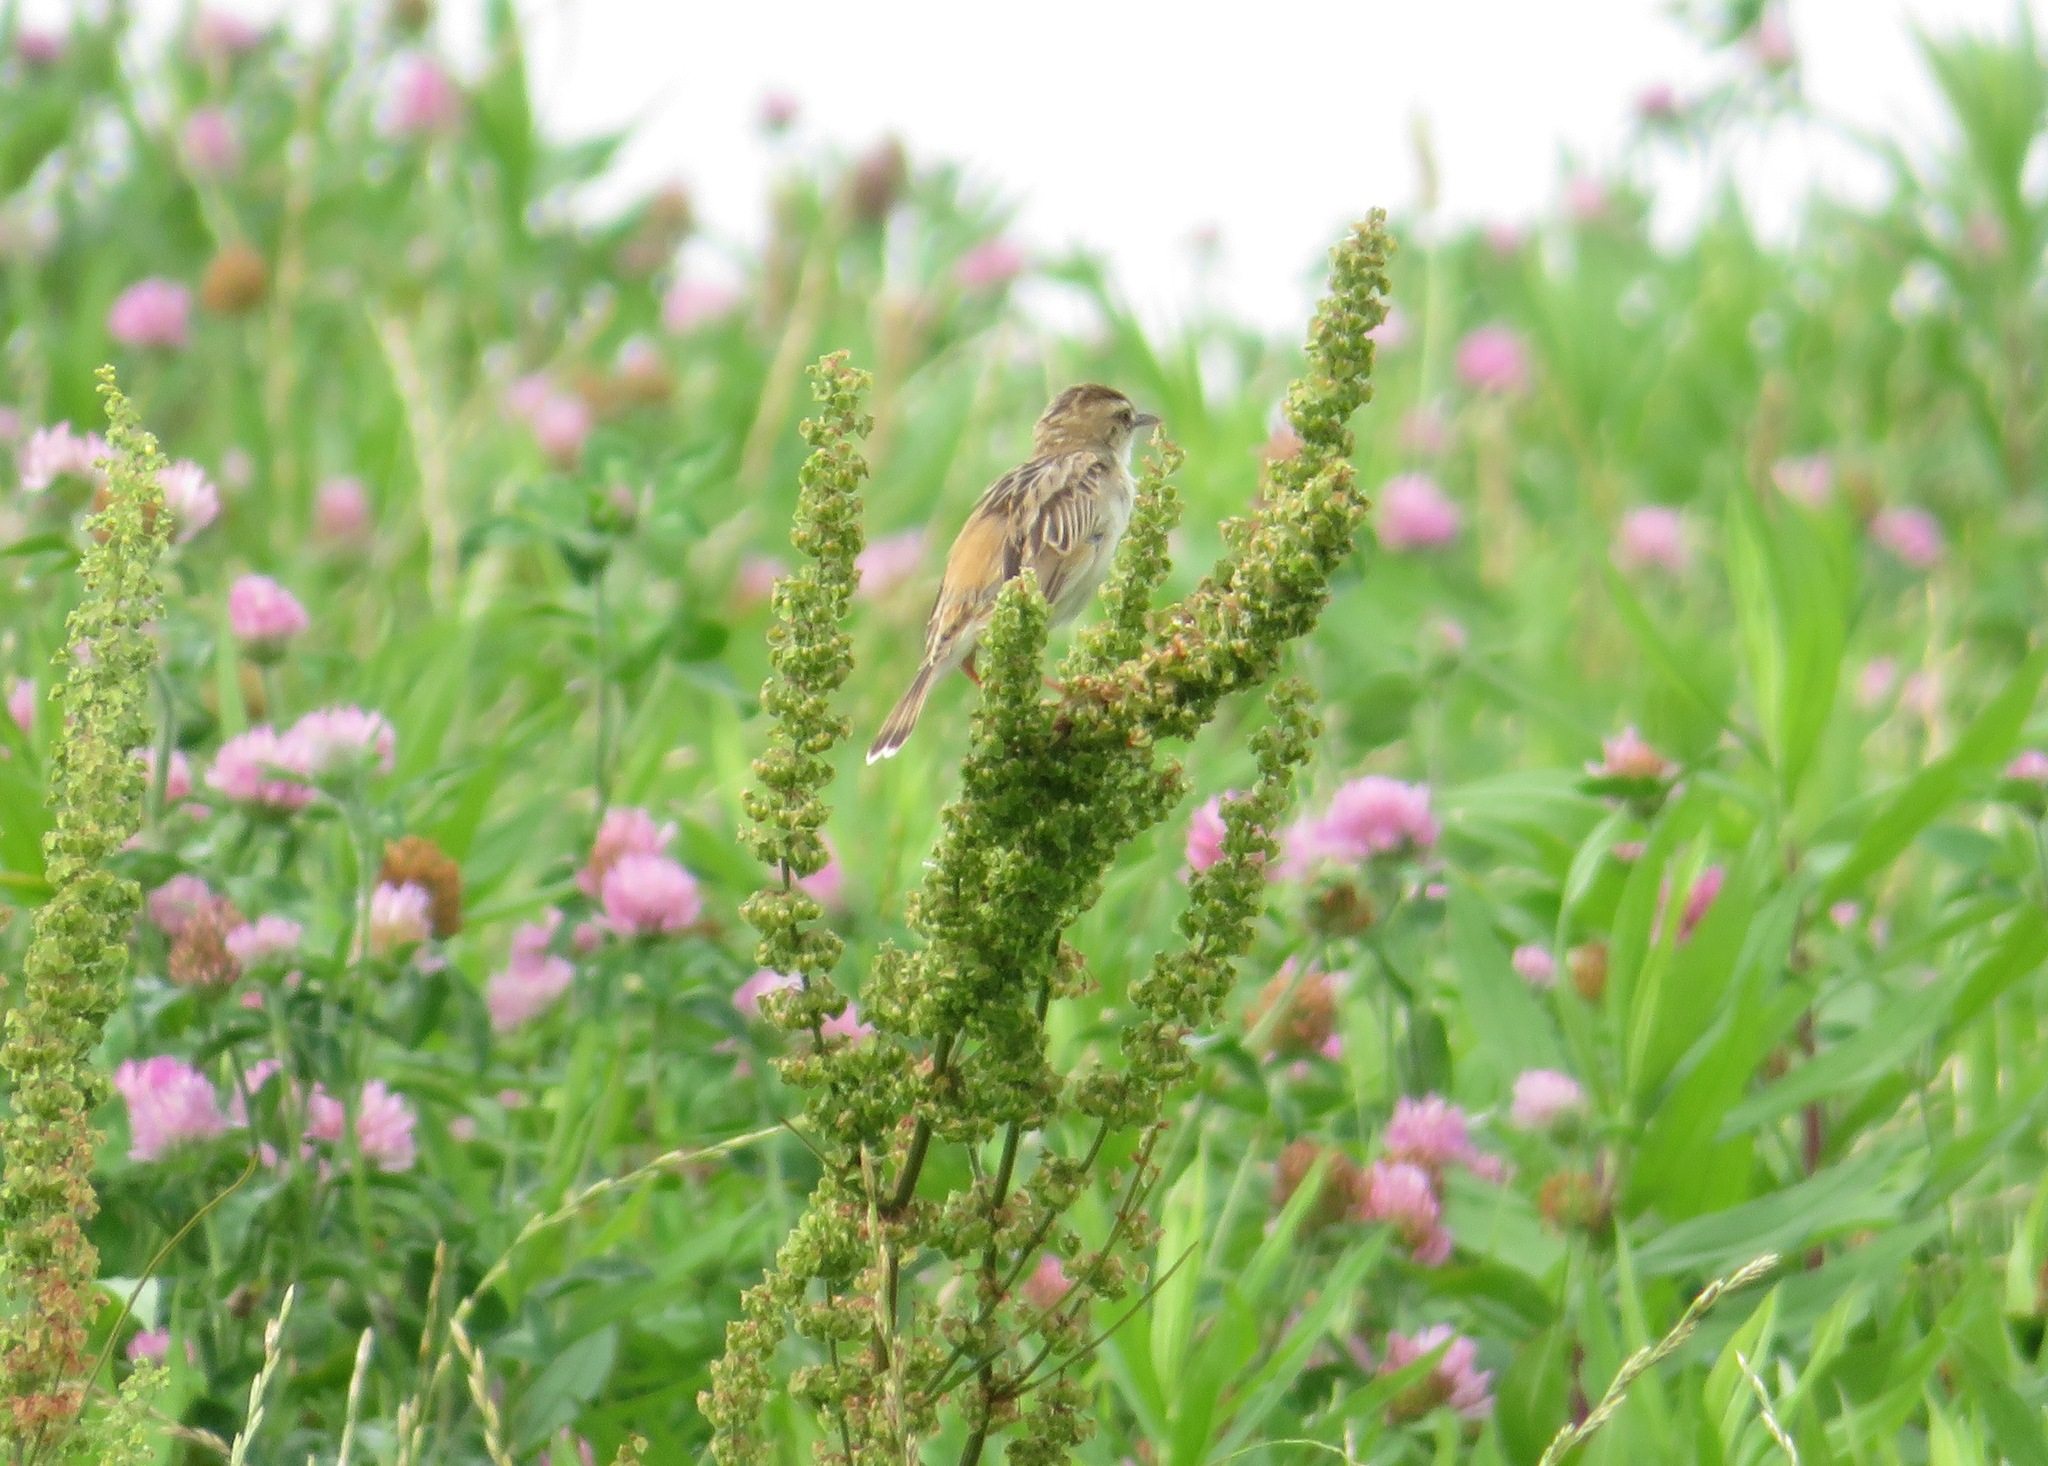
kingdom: Animalia
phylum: Chordata
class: Aves
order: Passeriformes
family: Cisticolidae
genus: Cisticola
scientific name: Cisticola juncidis
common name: Zitting cisticola
